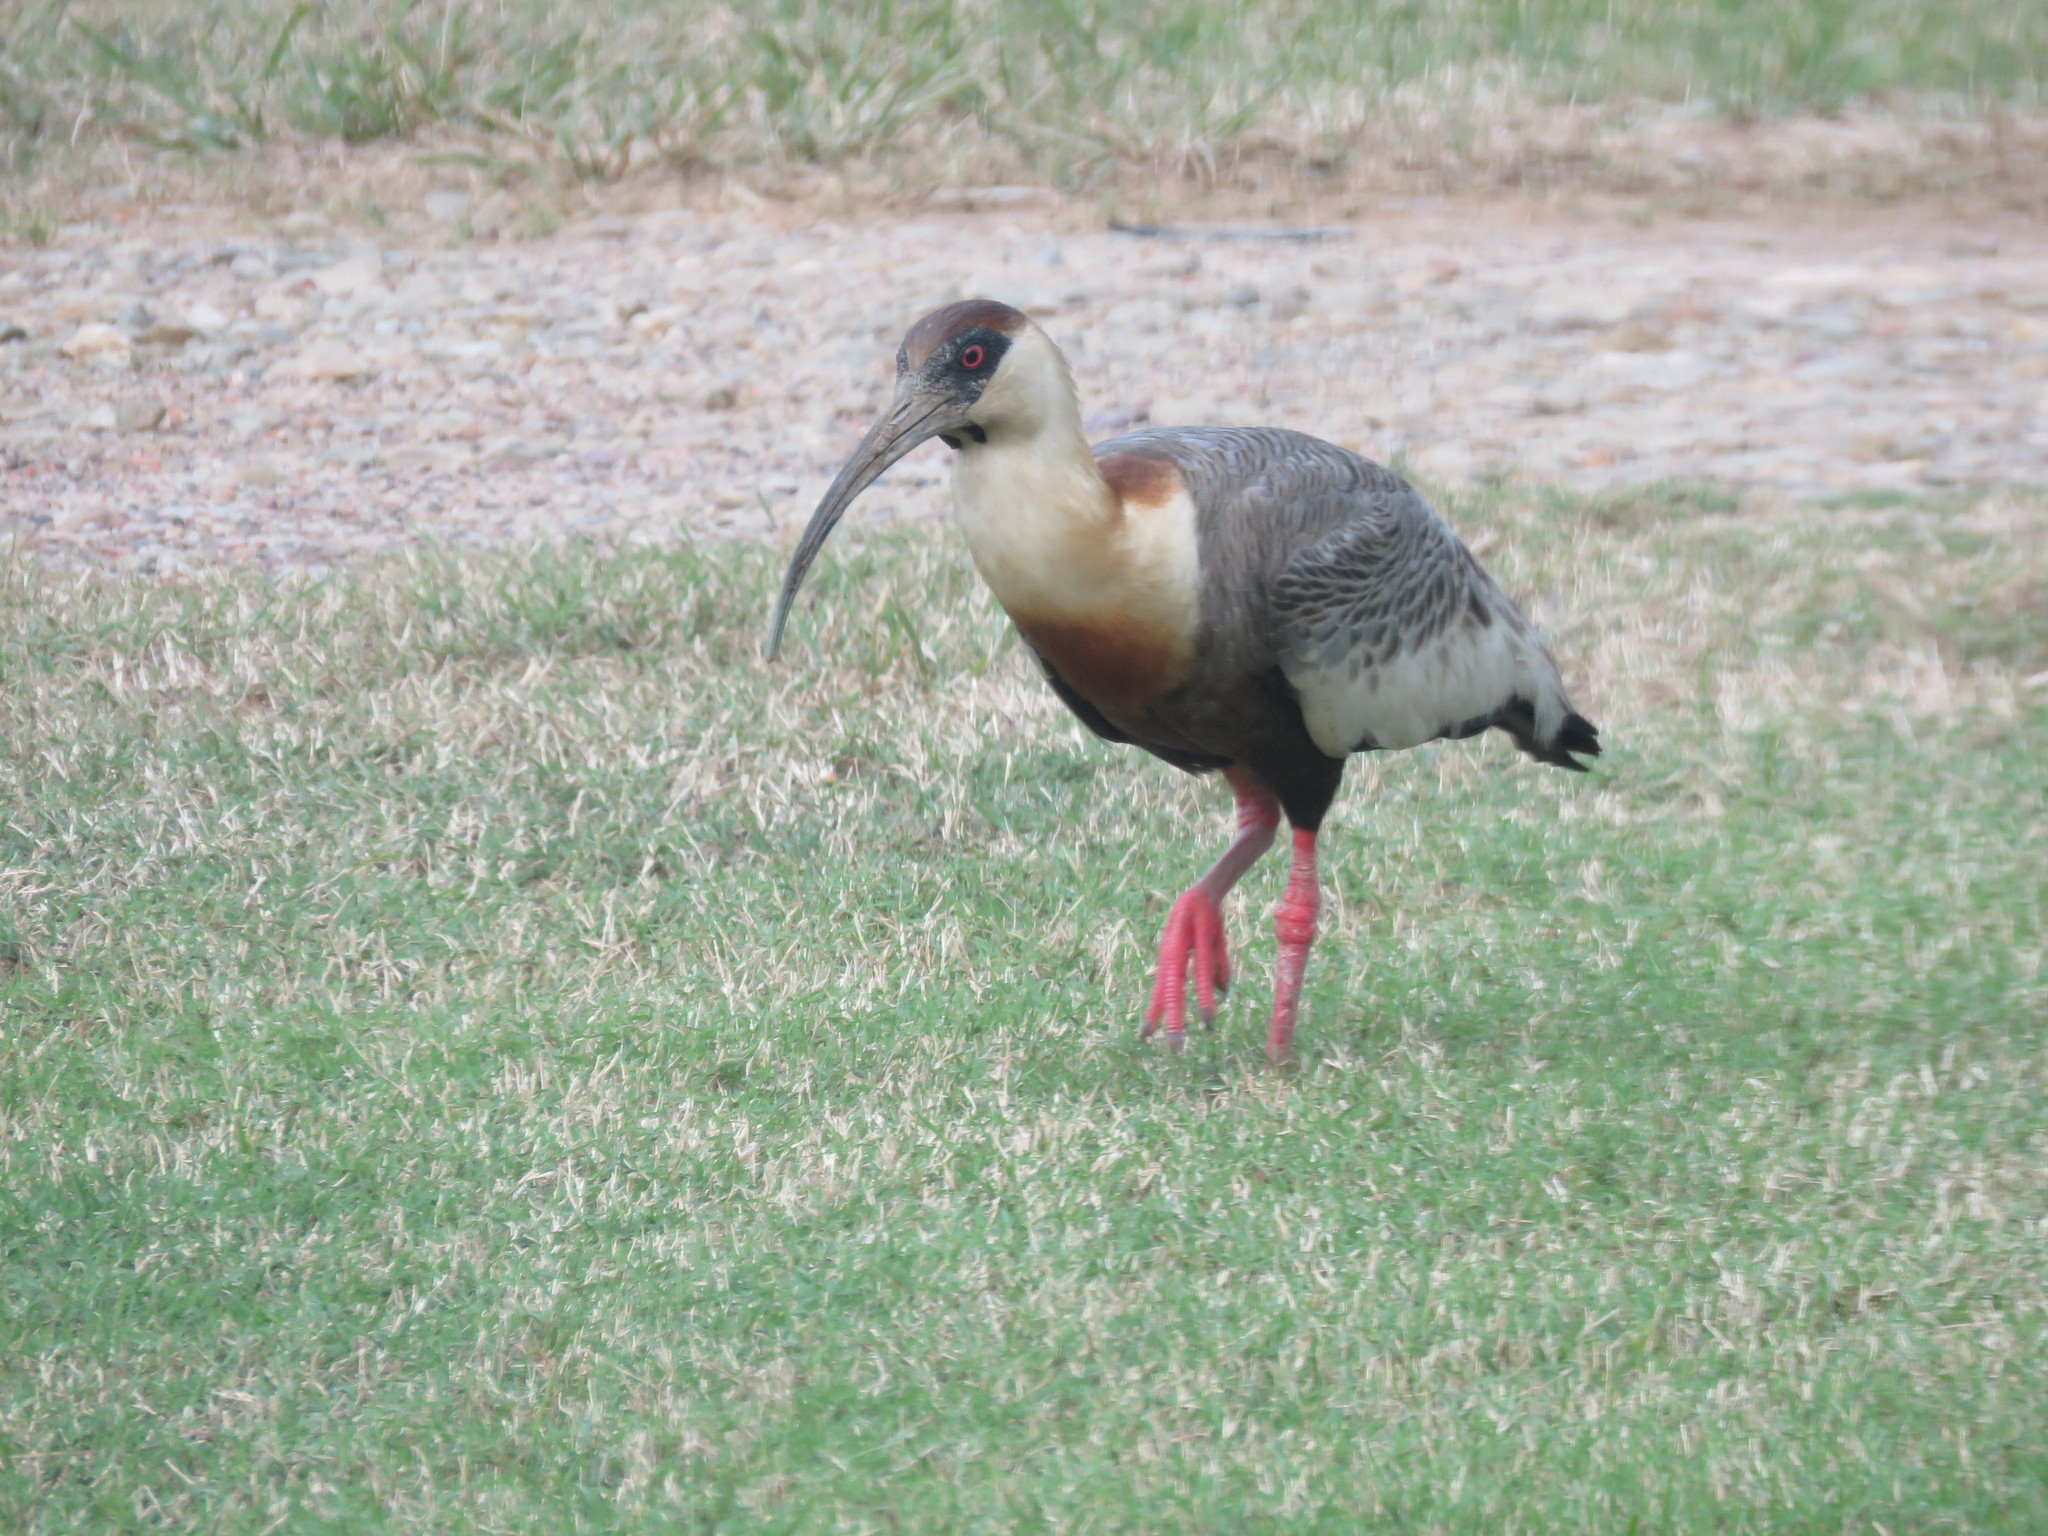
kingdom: Animalia
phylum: Chordata
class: Aves
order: Pelecaniformes
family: Threskiornithidae
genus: Theristicus
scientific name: Theristicus caudatus
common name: Buff-necked ibis
